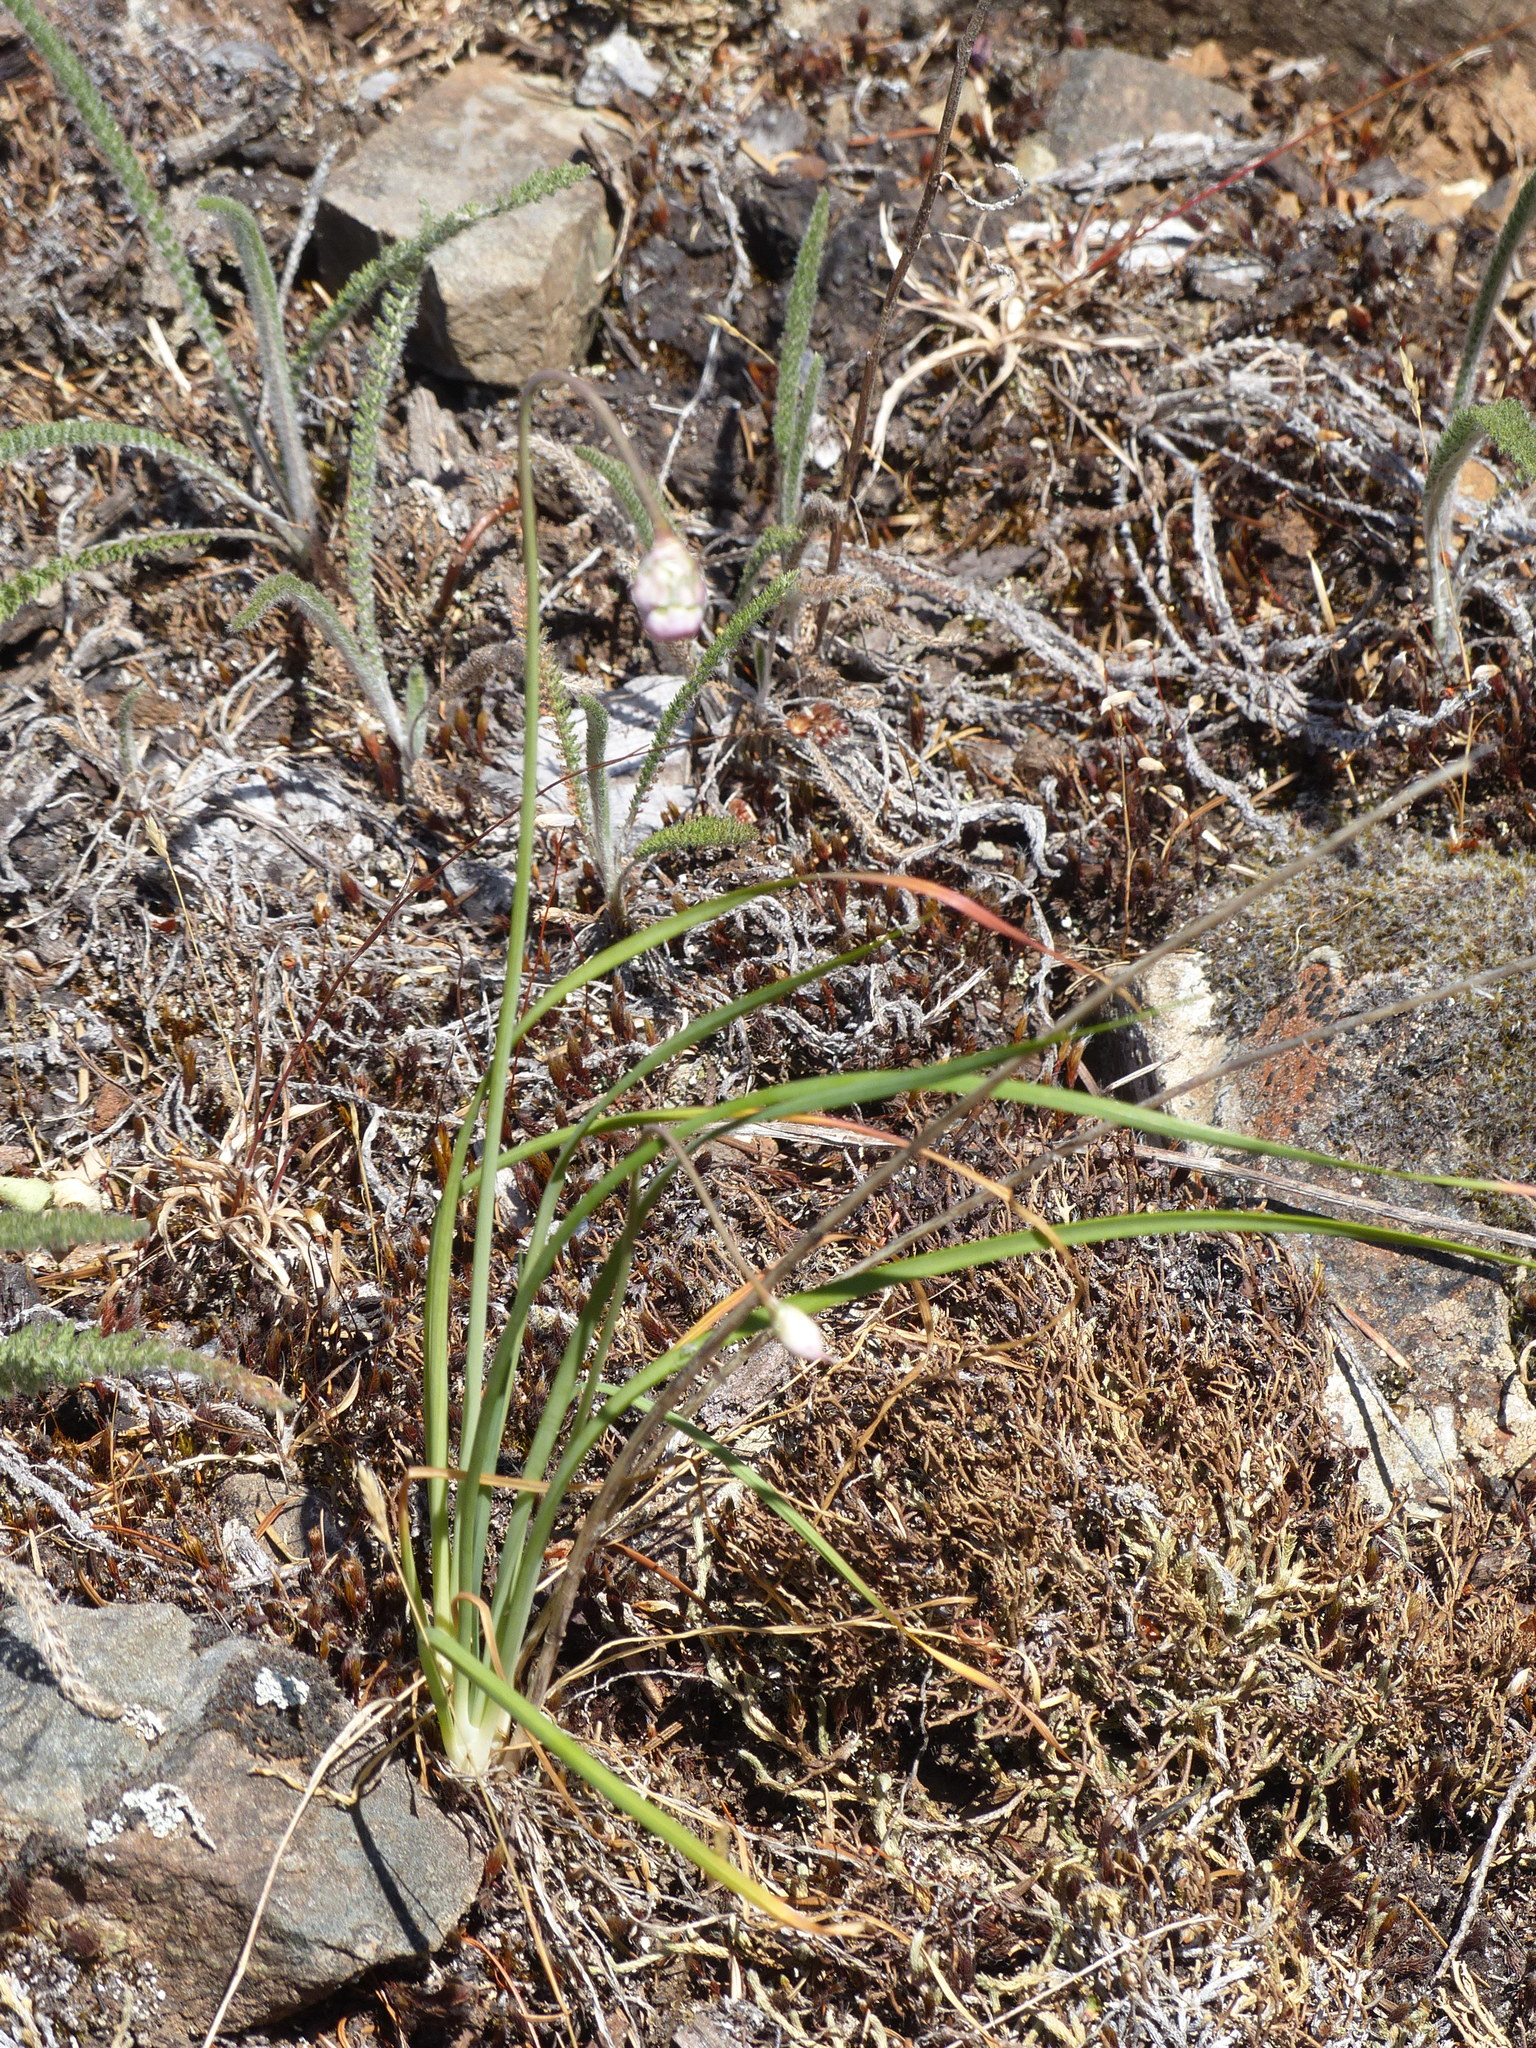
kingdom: Plantae
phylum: Tracheophyta
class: Liliopsida
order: Asparagales
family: Amaryllidaceae
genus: Allium
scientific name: Allium cernuum
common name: Nodding onion
